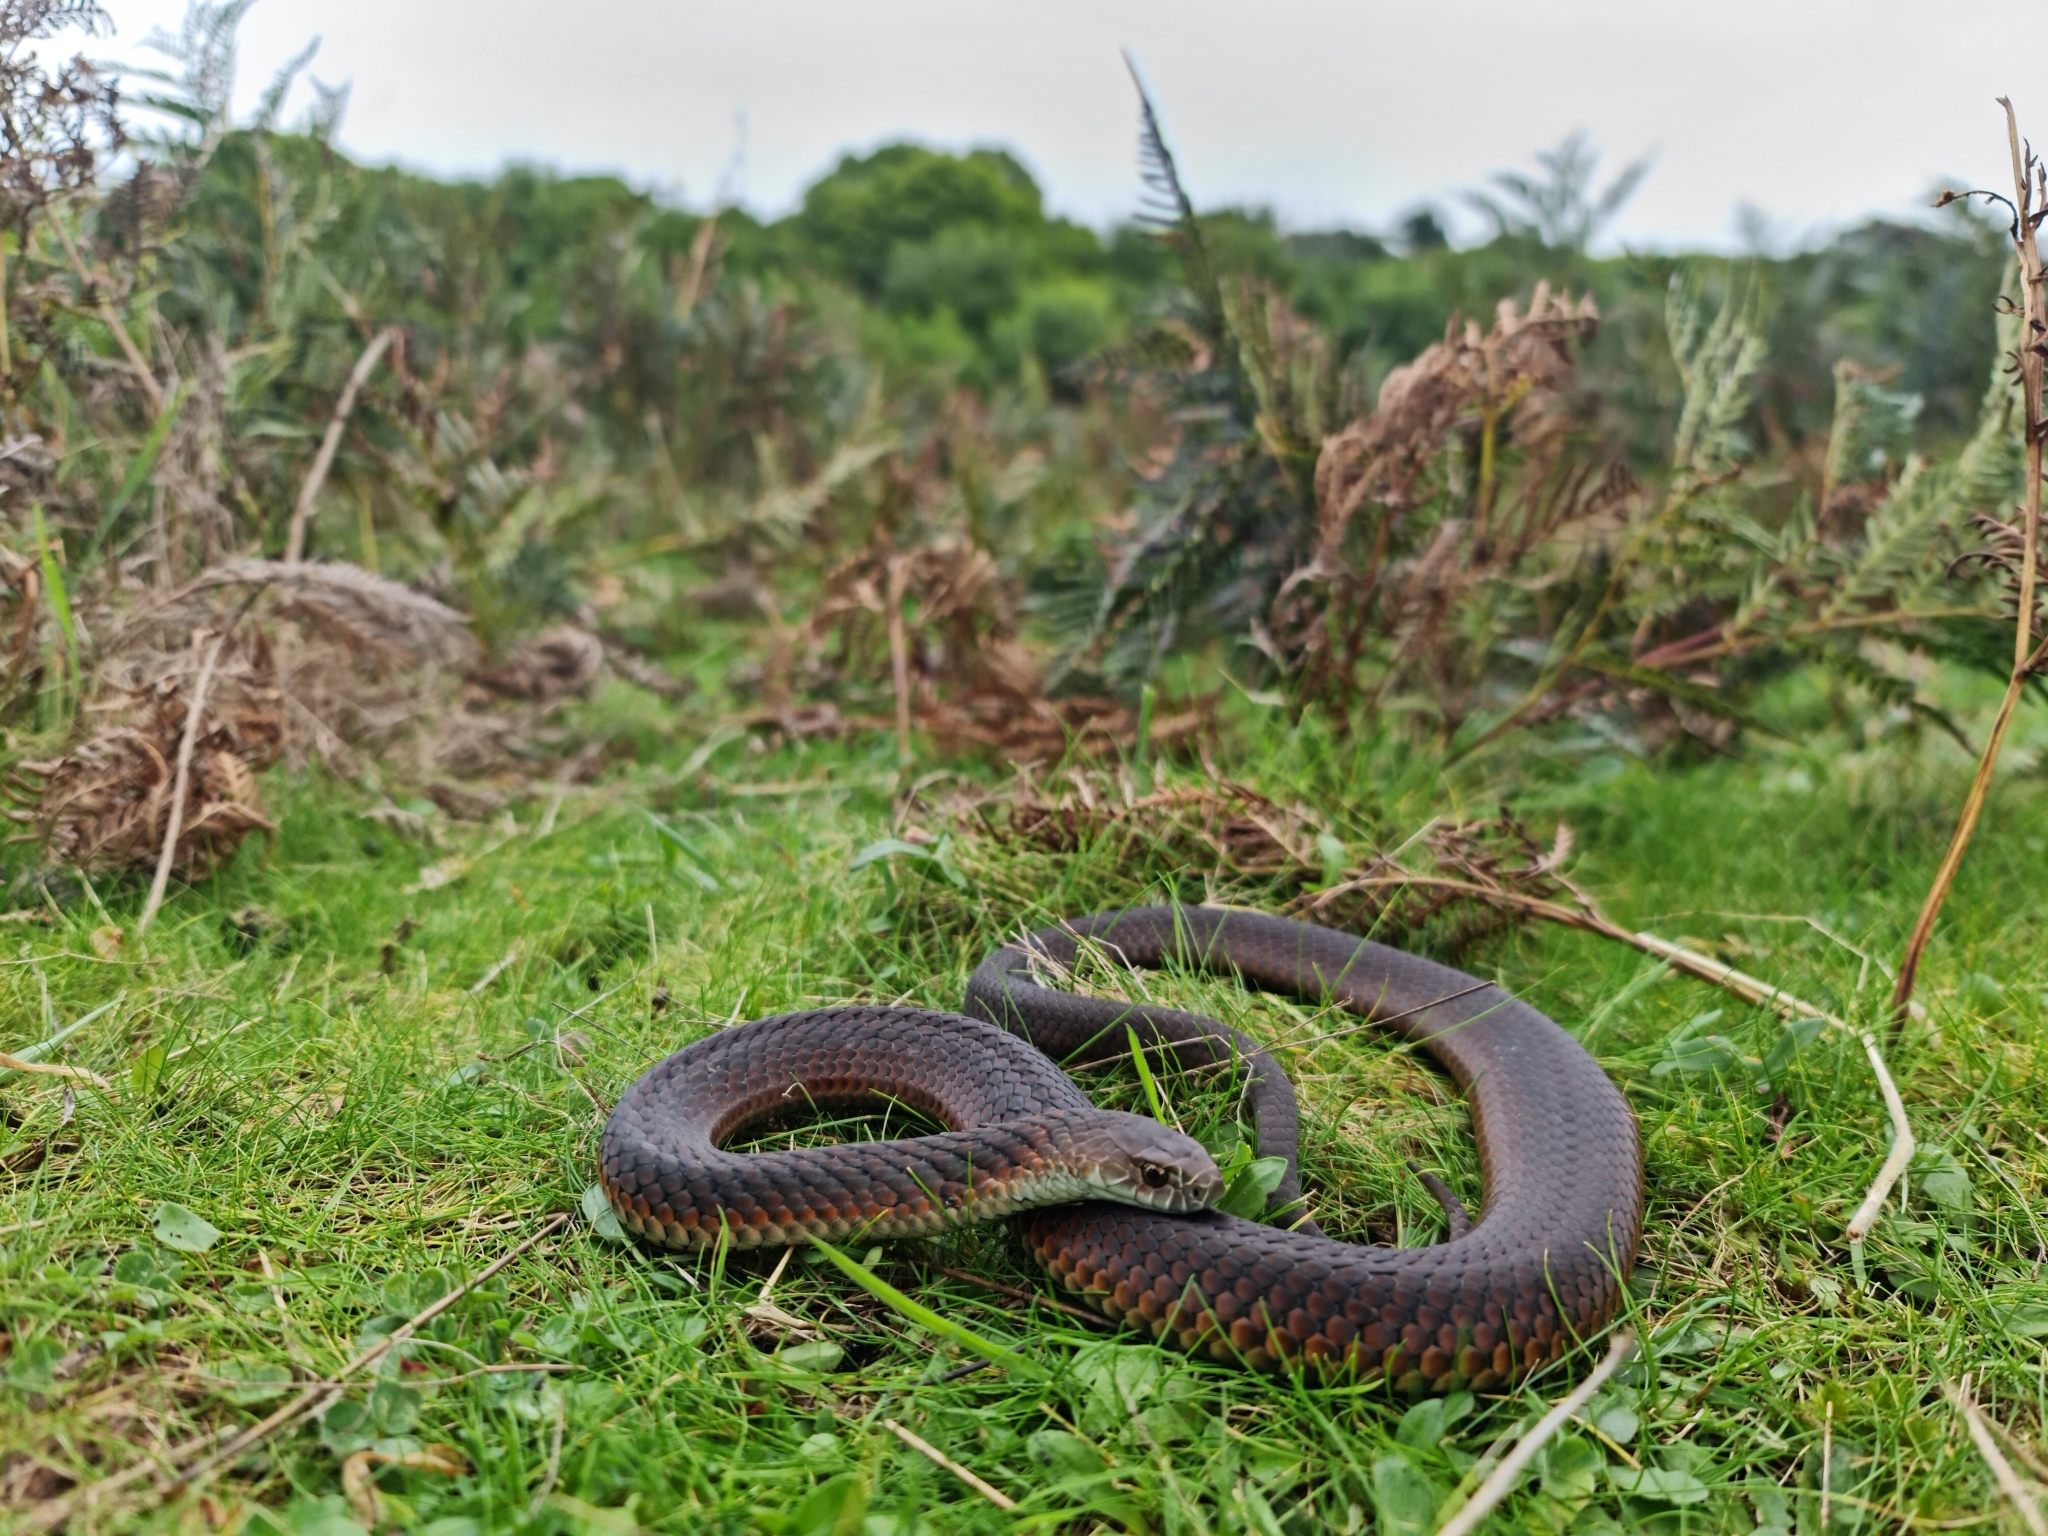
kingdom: Animalia
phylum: Chordata
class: Squamata
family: Elapidae
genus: Austrelaps
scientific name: Austrelaps superbus
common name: Copperhead snake
